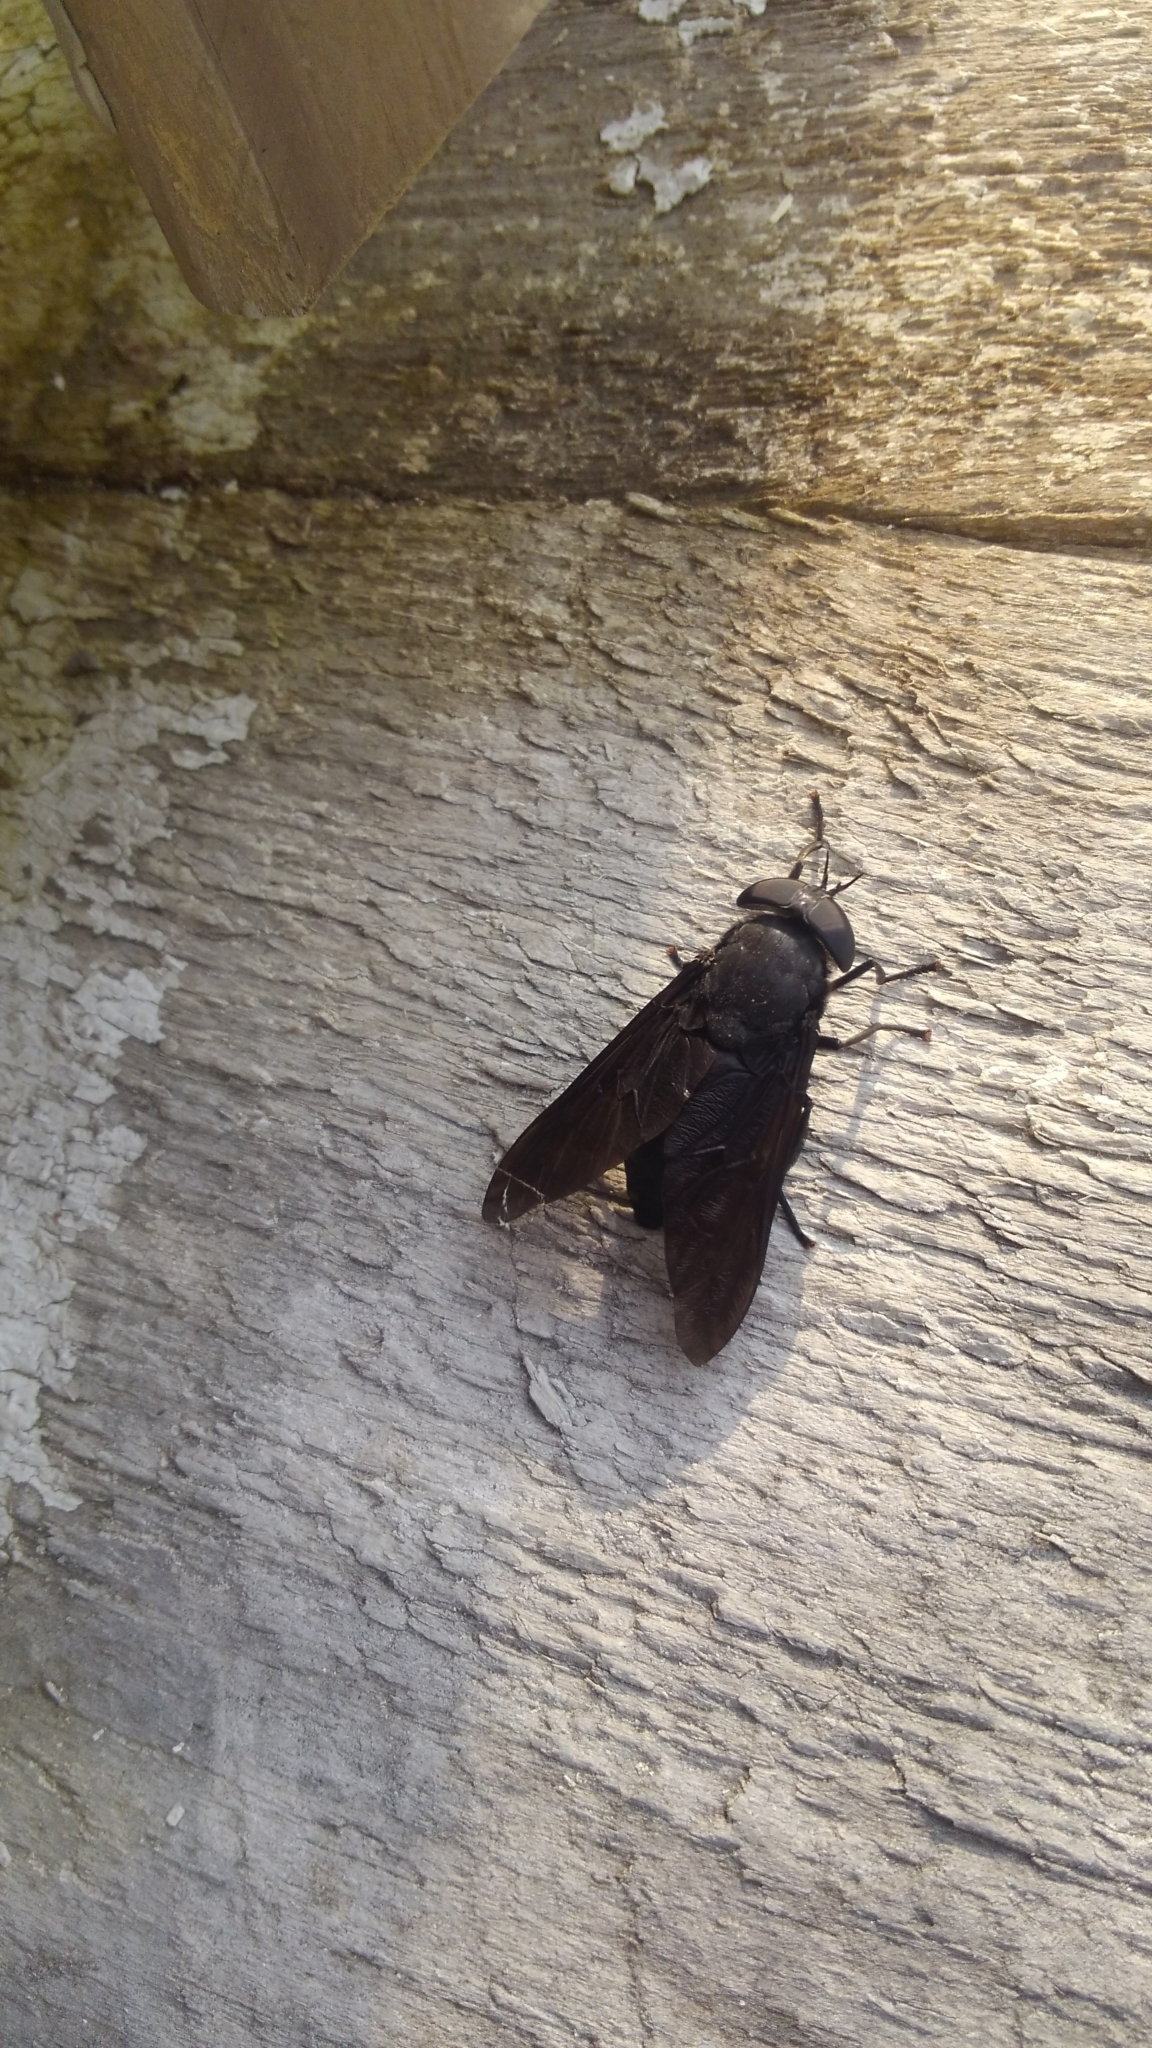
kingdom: Animalia
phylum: Arthropoda
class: Insecta
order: Diptera
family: Tabanidae
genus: Tabanus
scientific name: Tabanus atratus
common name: Black horse fly
